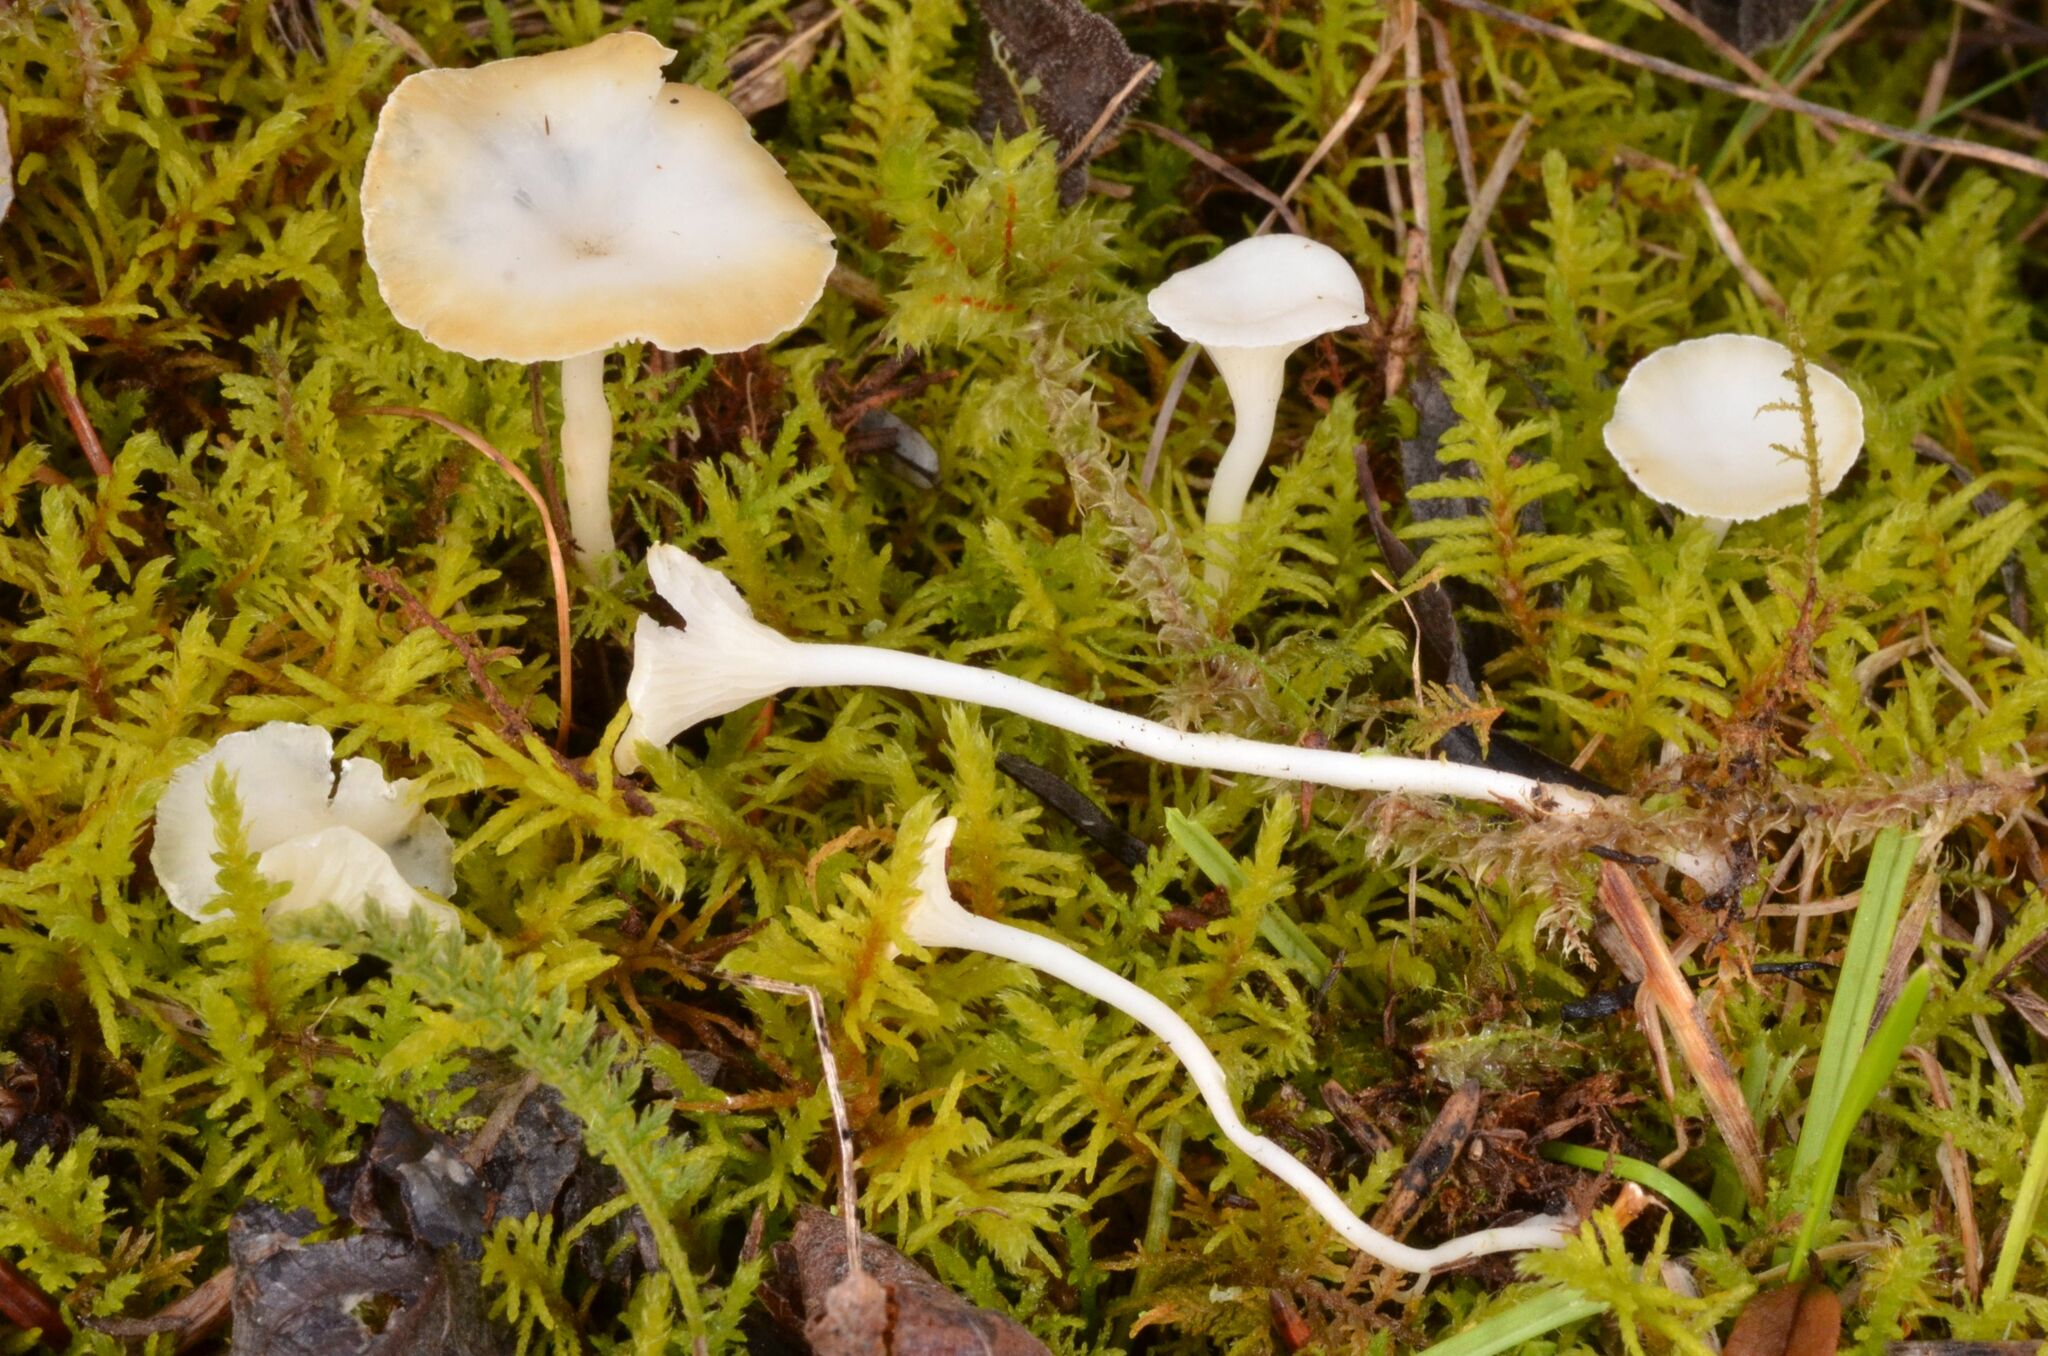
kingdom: Fungi
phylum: Basidiomycota
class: Agaricomycetes
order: Hymenochaetales
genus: Cantharellopsis
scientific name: Cantharellopsis prescotii
